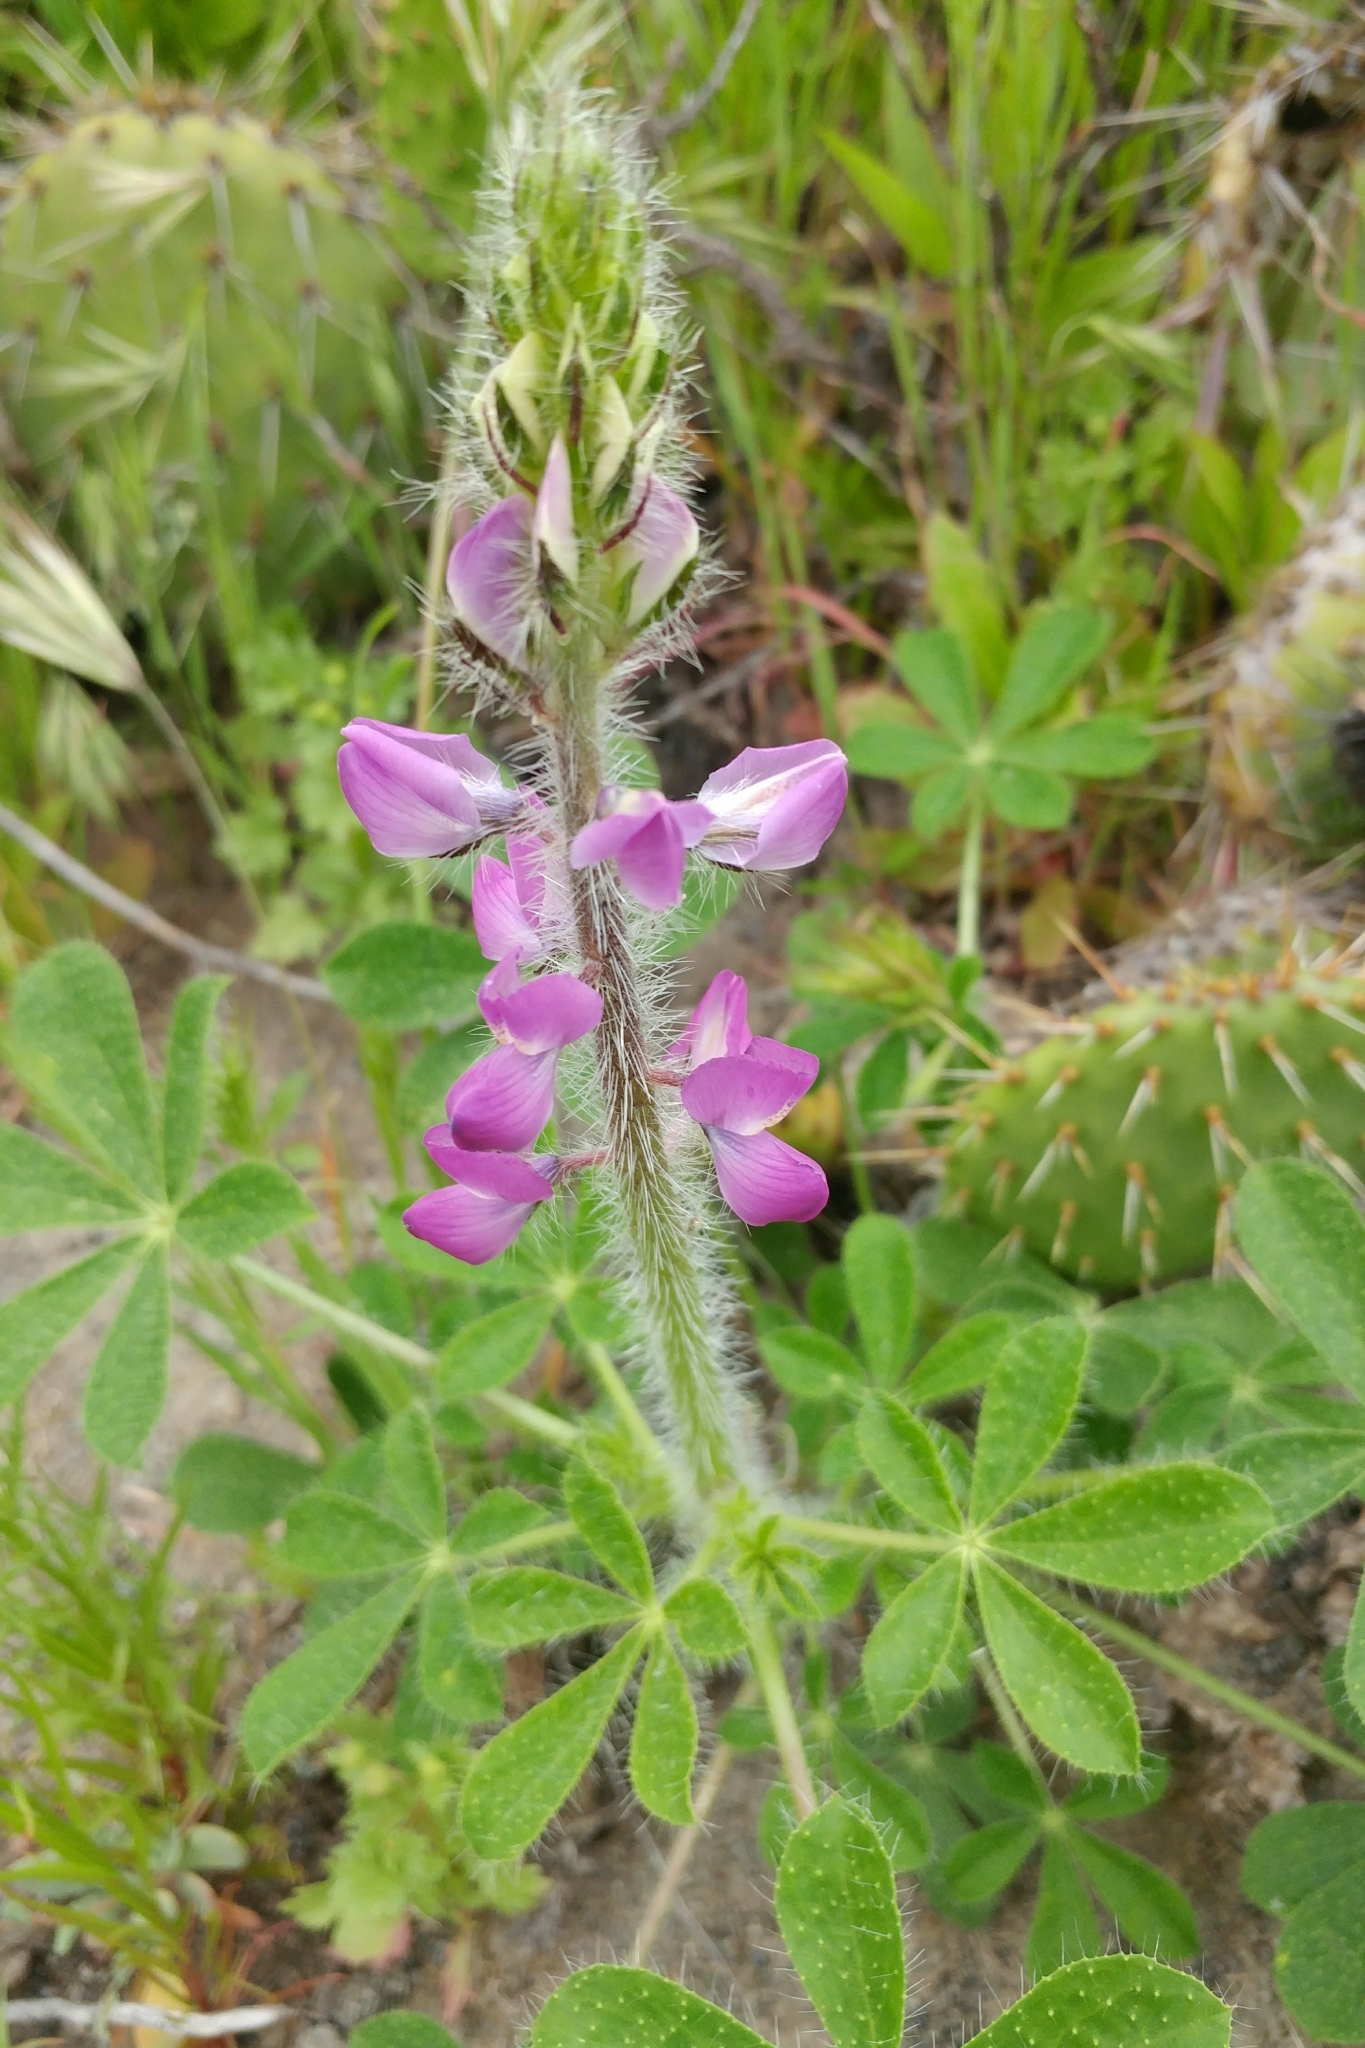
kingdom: Plantae
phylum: Tracheophyta
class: Magnoliopsida
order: Fabales
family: Fabaceae
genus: Lupinus
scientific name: Lupinus hirsutissimus
